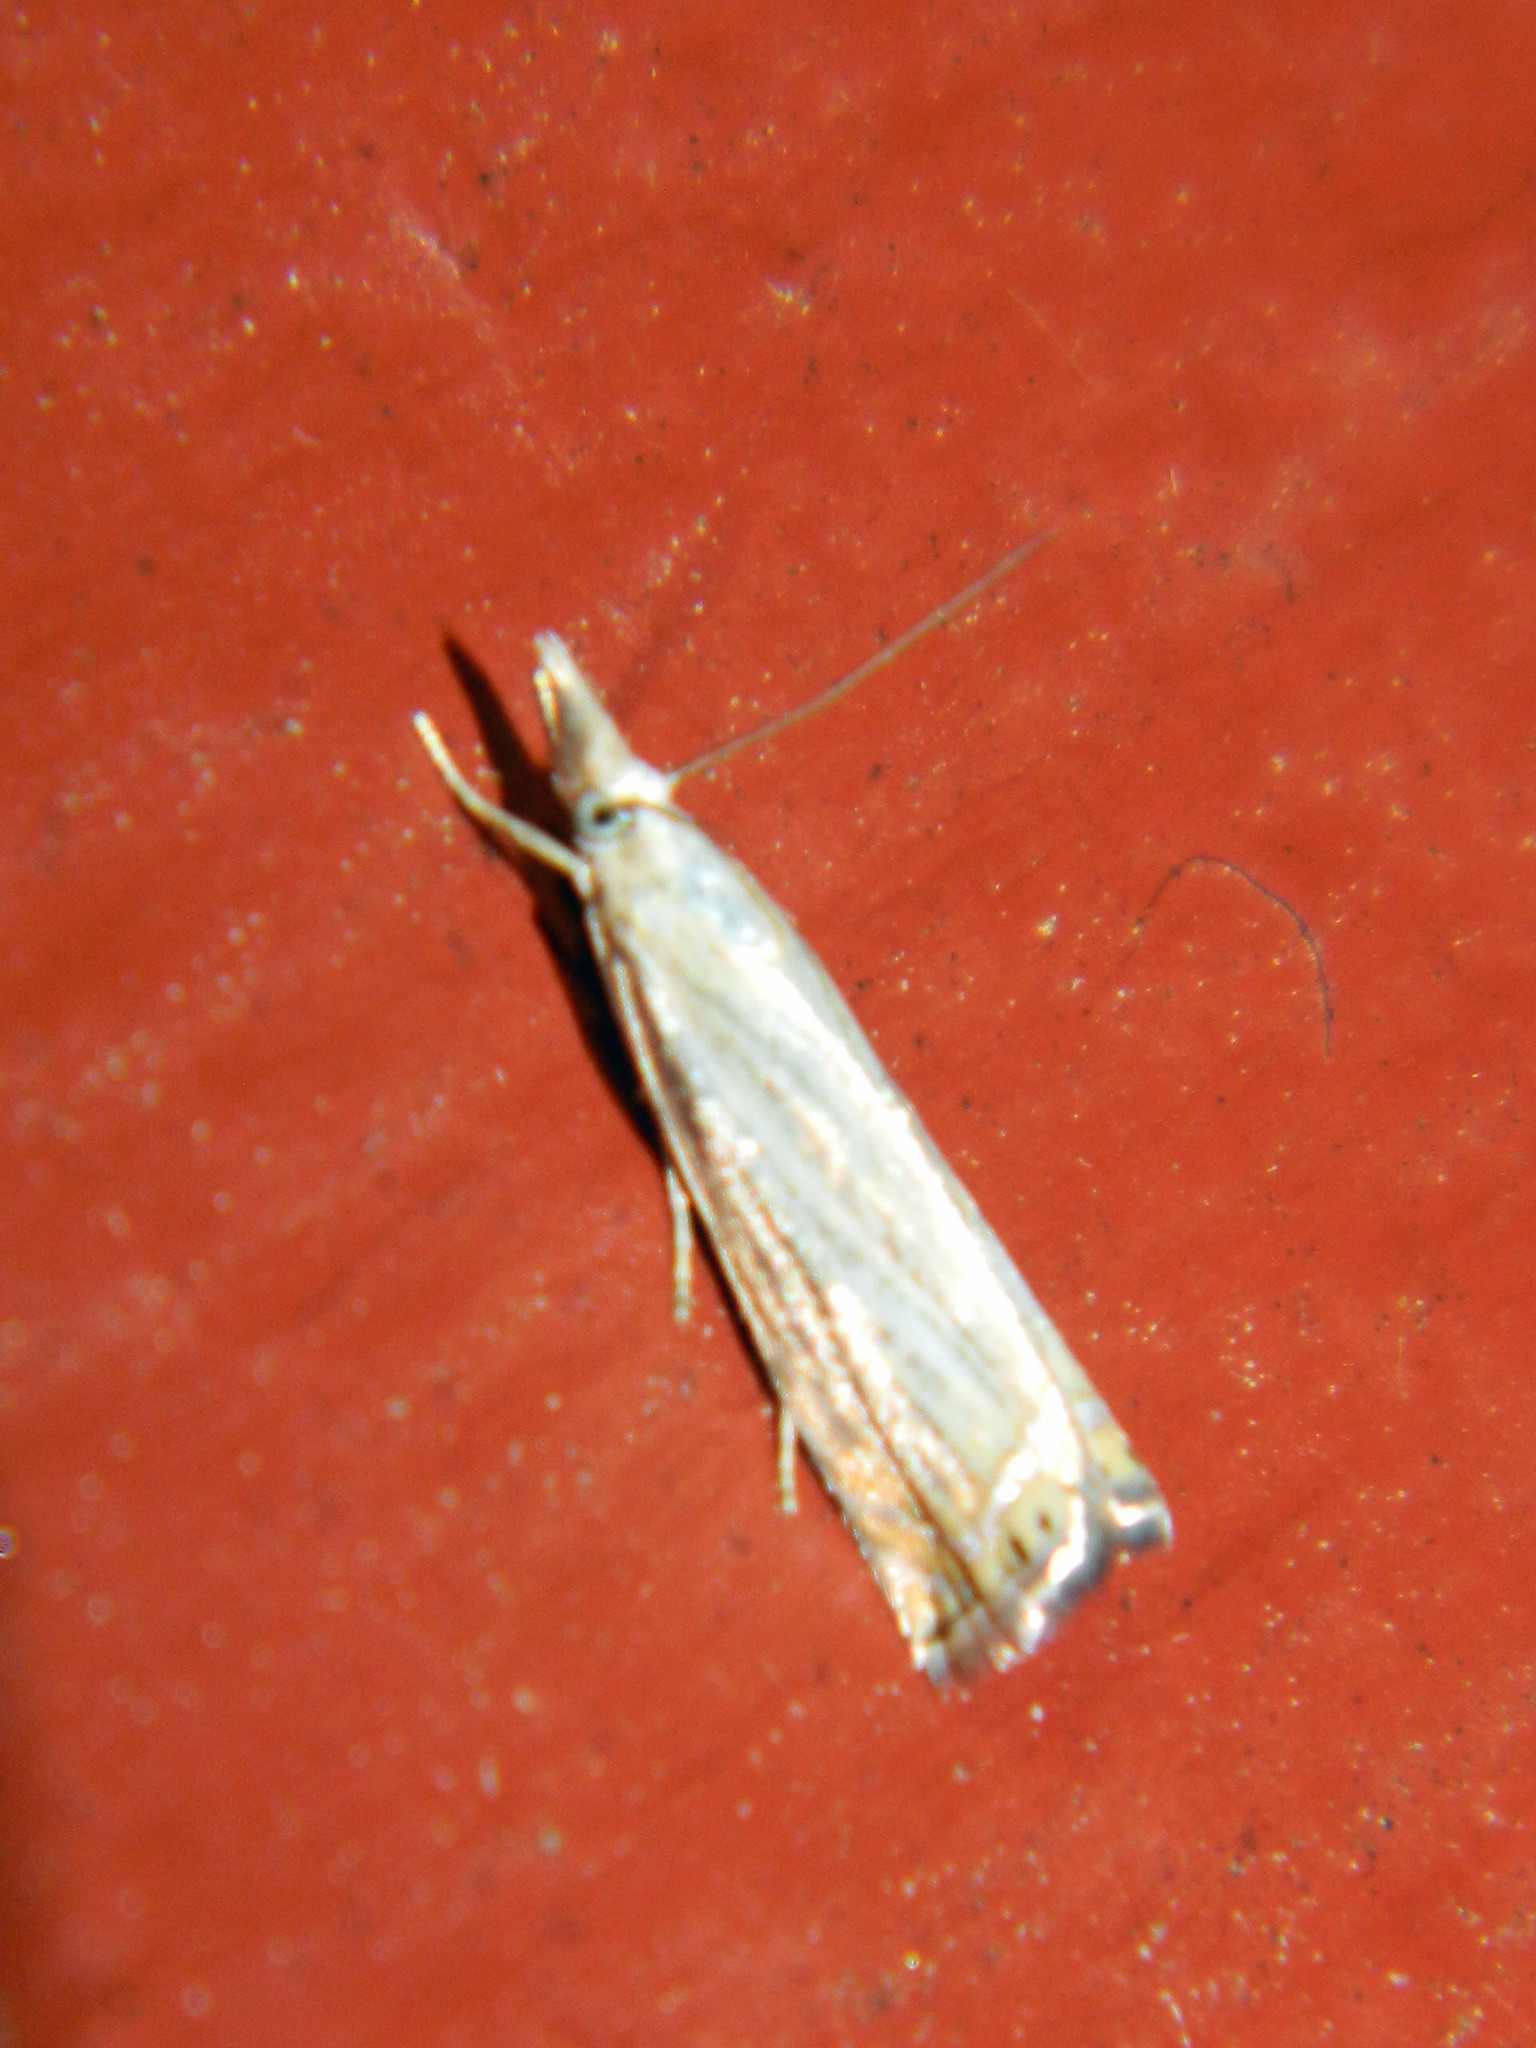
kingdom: Animalia
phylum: Arthropoda
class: Insecta
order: Lepidoptera
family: Crambidae
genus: Chrysoteuchia
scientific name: Chrysoteuchia topiarius
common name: Topiary grass-veneer
